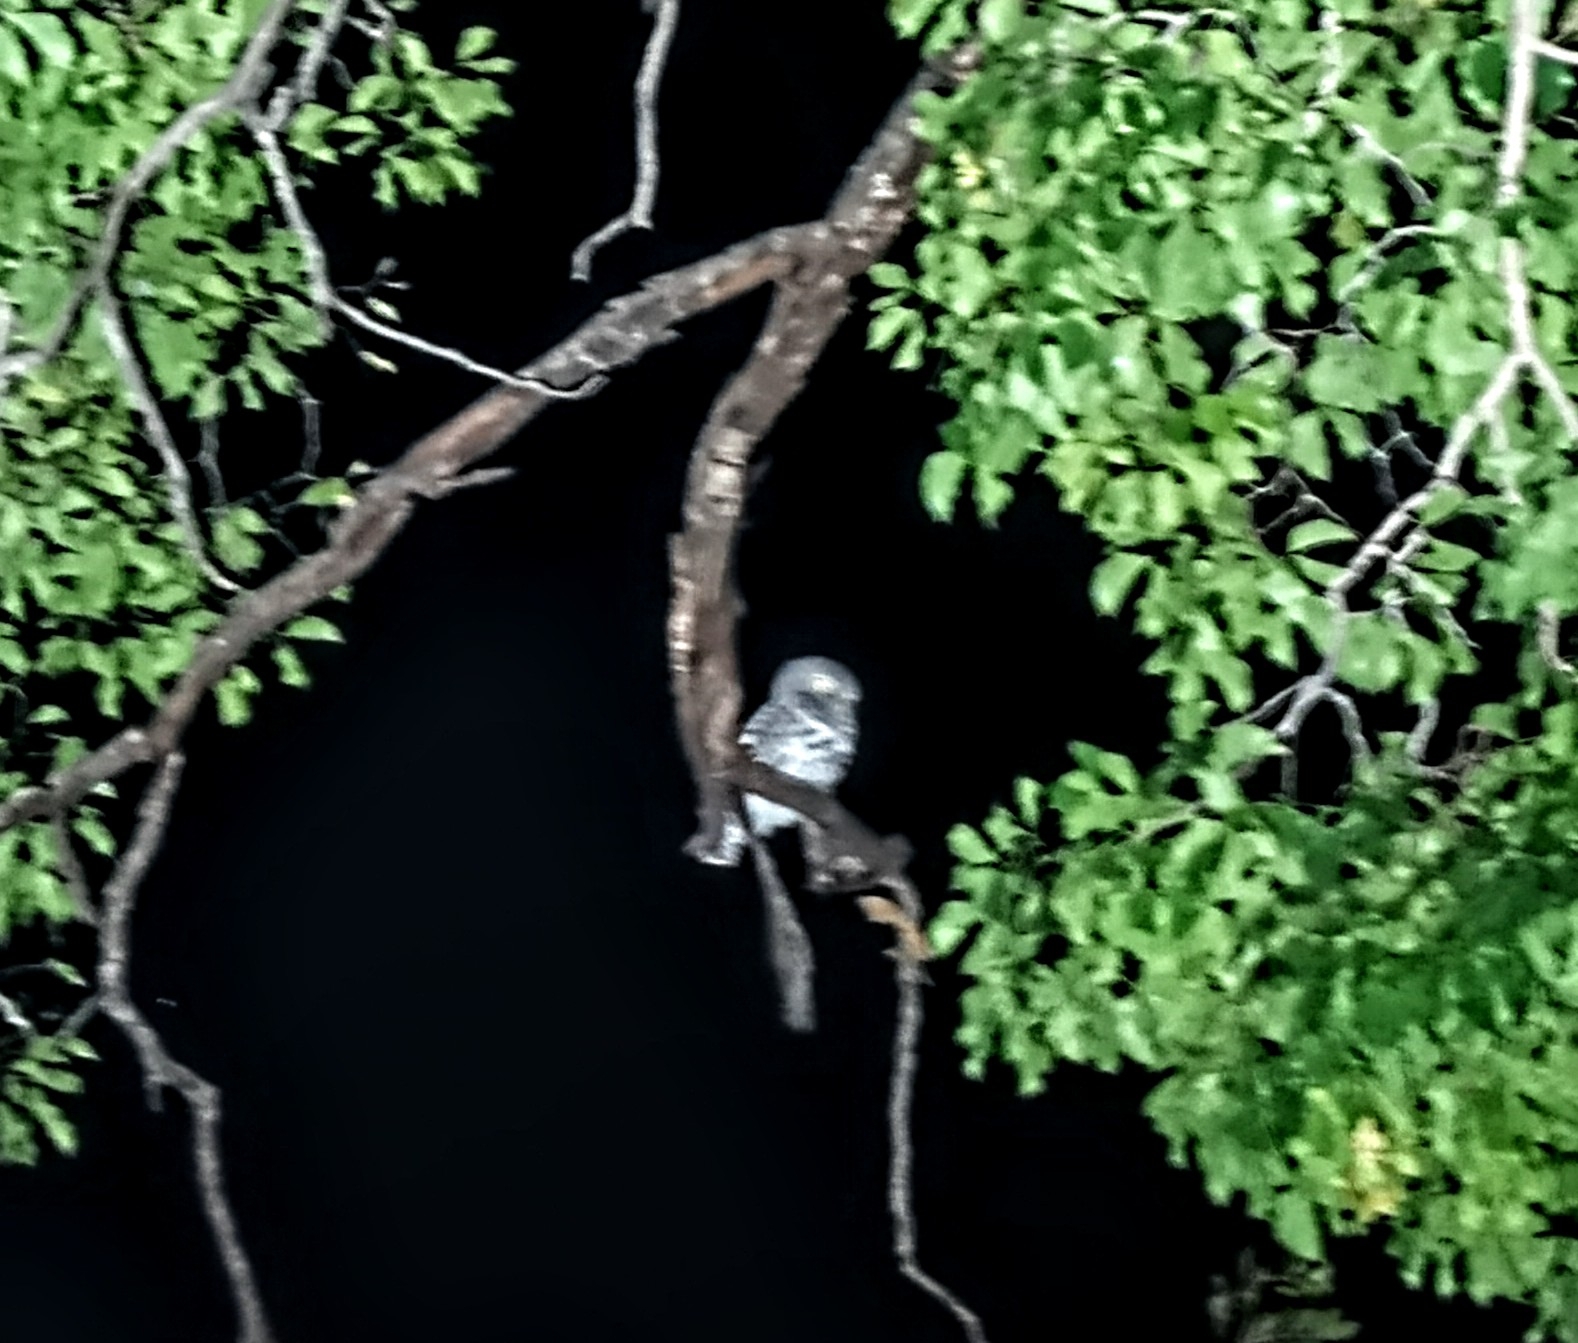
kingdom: Animalia
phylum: Chordata
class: Aves
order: Strigiformes
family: Strigidae
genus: Glaucidium
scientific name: Glaucidium capense
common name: African barred owlet
